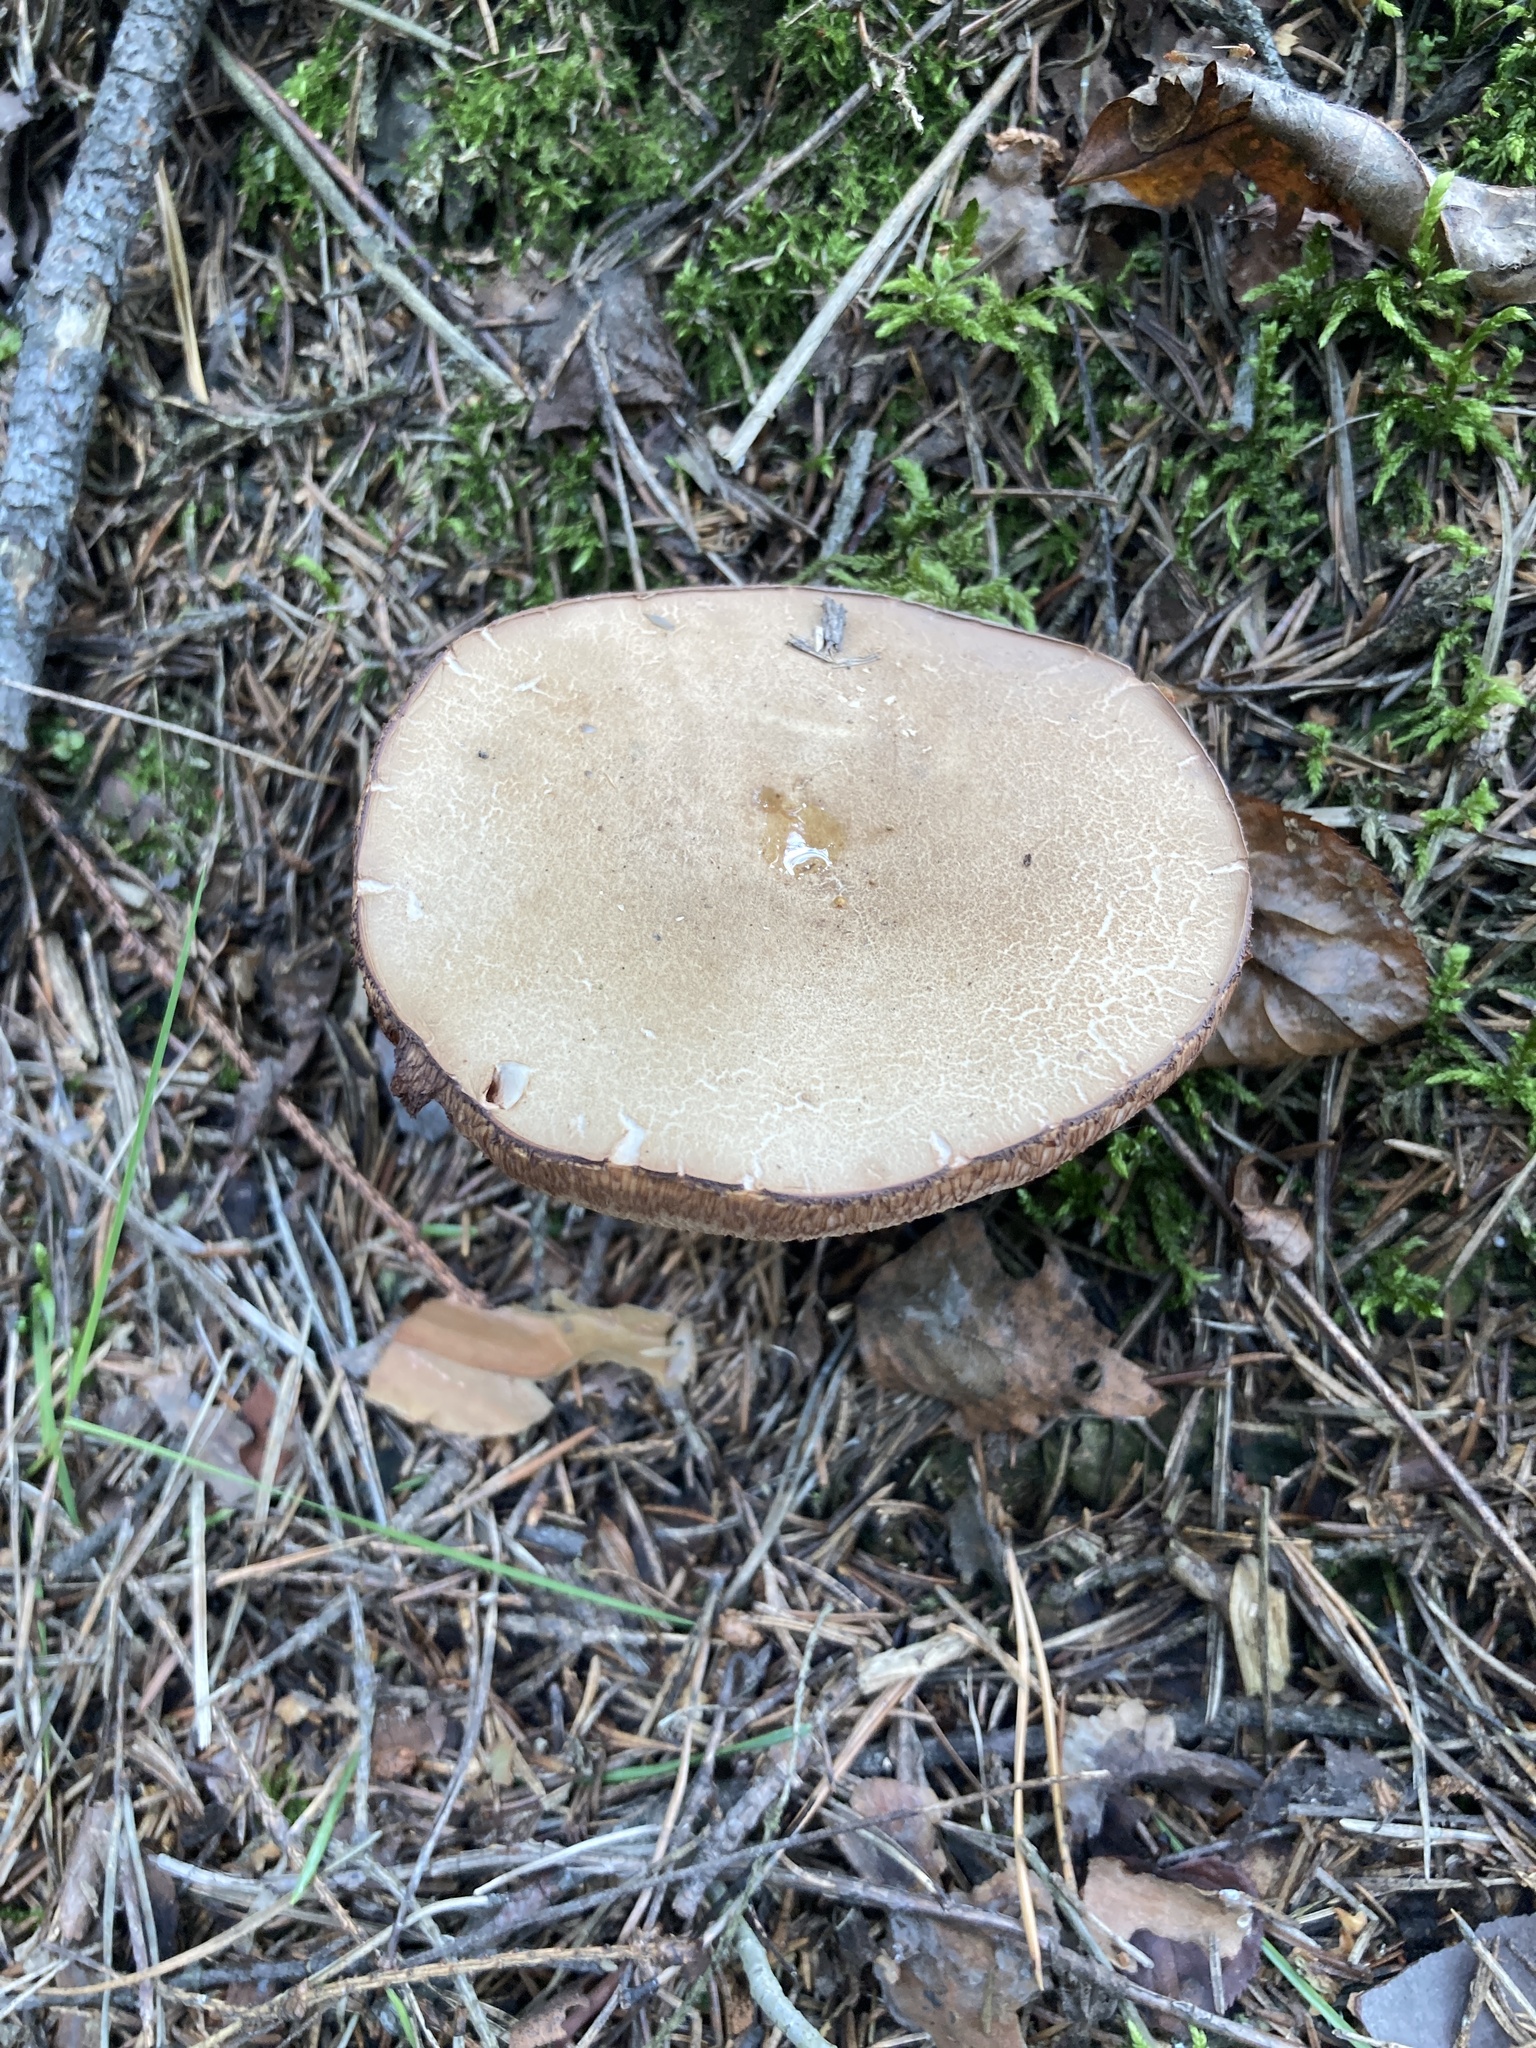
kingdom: Fungi
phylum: Basidiomycota
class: Agaricomycetes
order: Boletales
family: Boletaceae
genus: Tylopilus
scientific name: Tylopilus felleus
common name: Bitter bolete
